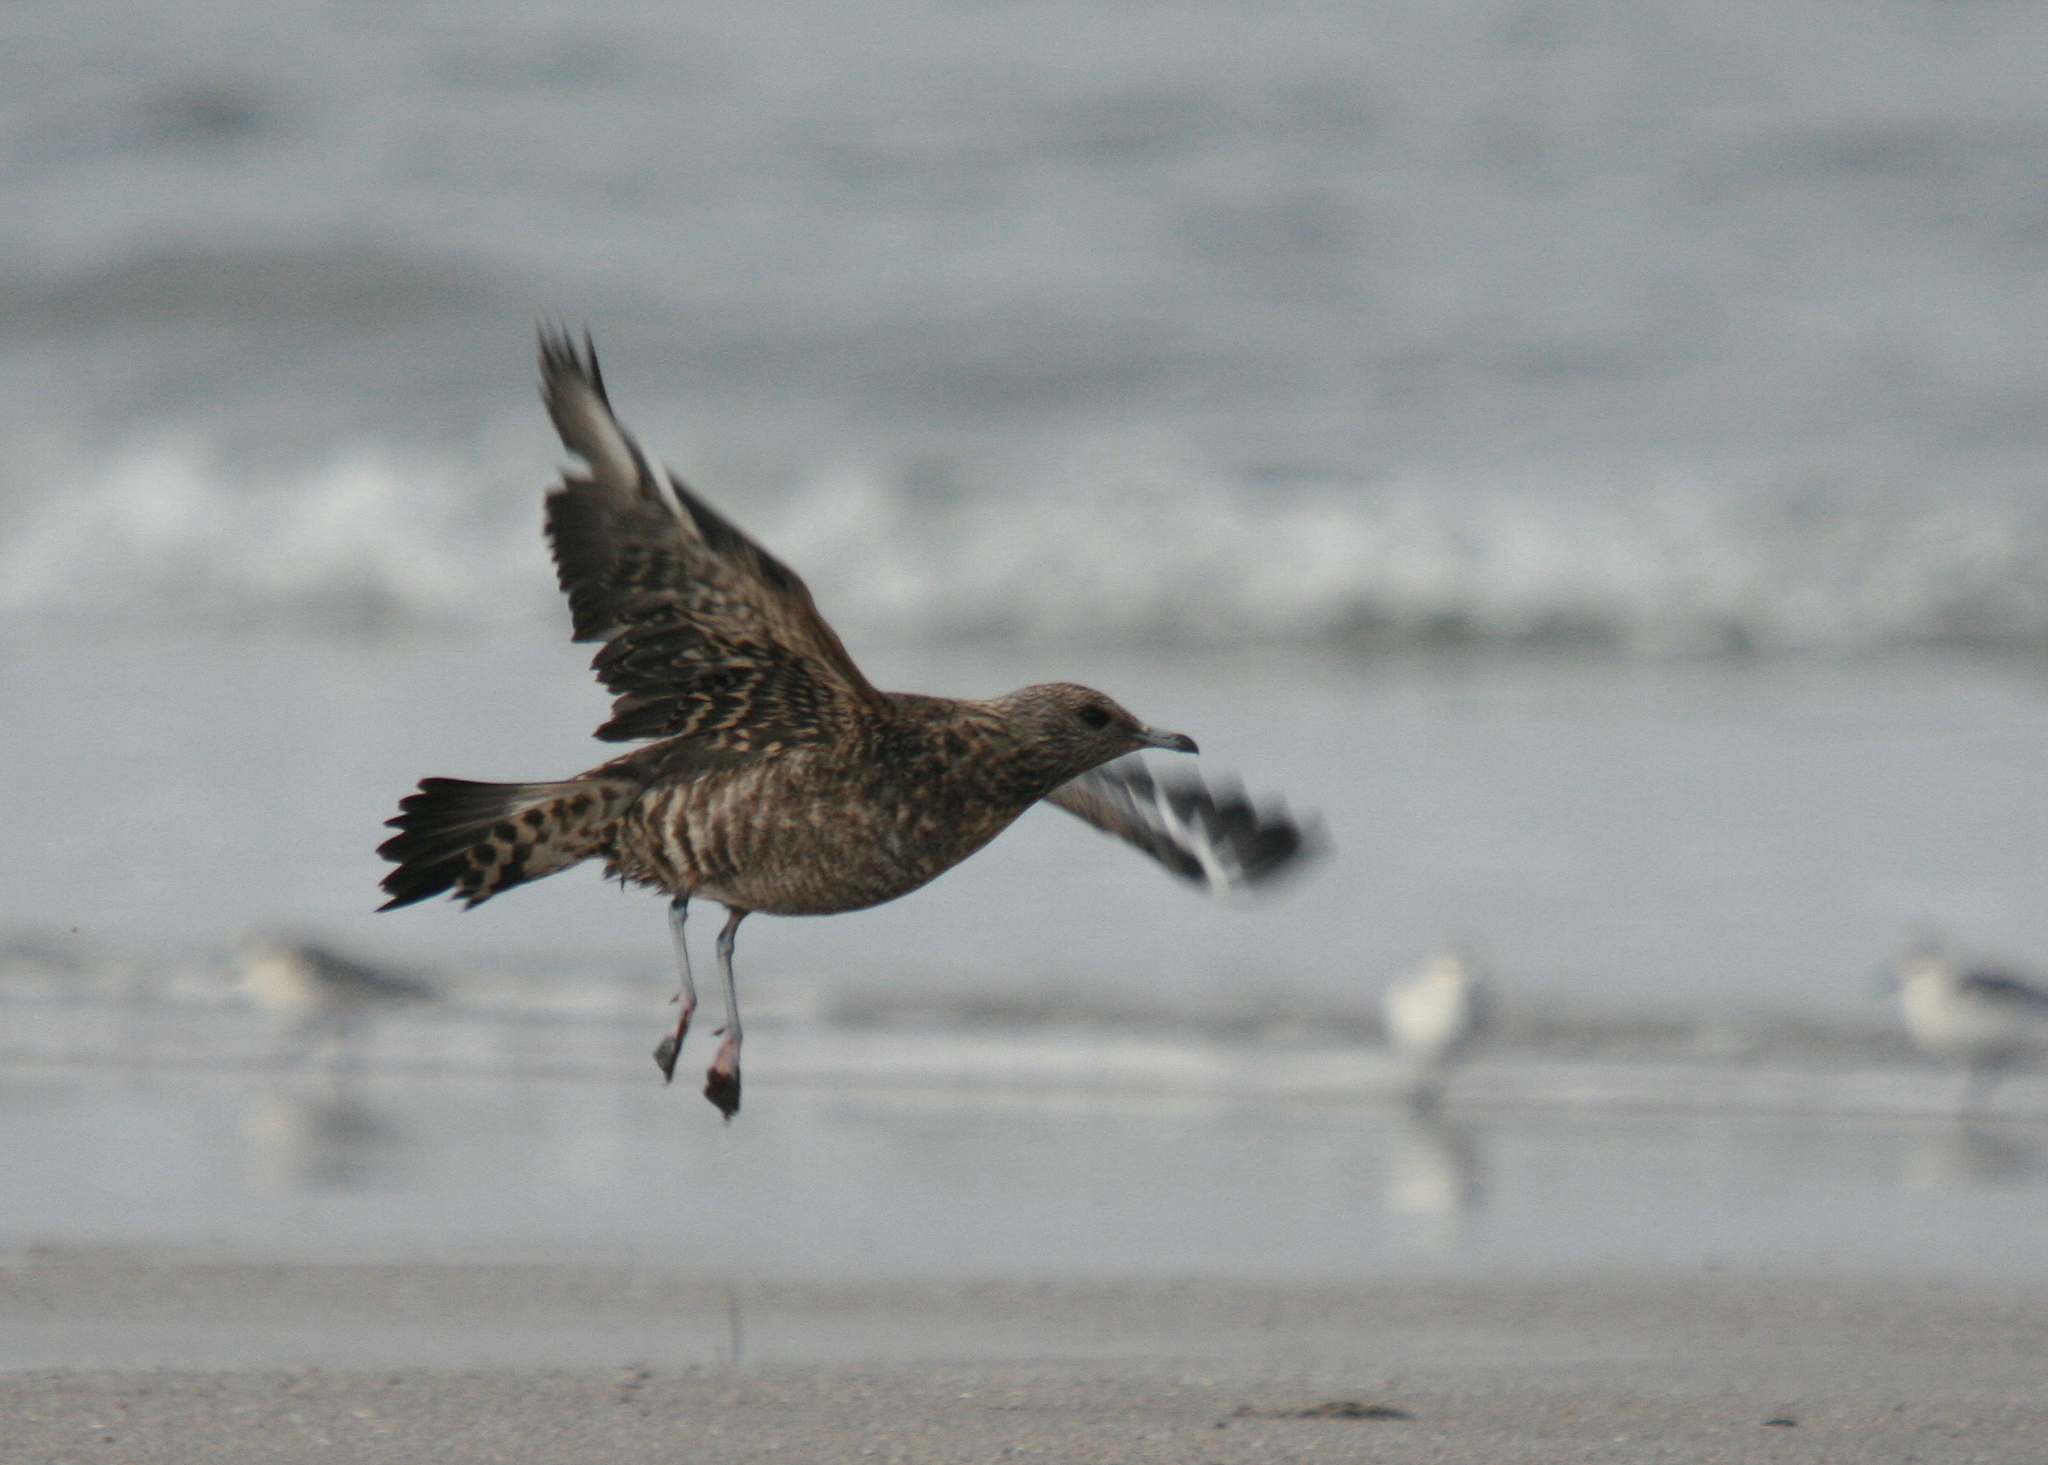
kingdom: Animalia
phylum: Chordata
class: Aves
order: Charadriiformes
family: Stercorariidae
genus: Stercorarius
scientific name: Stercorarius parasiticus
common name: Parasitic jaeger
